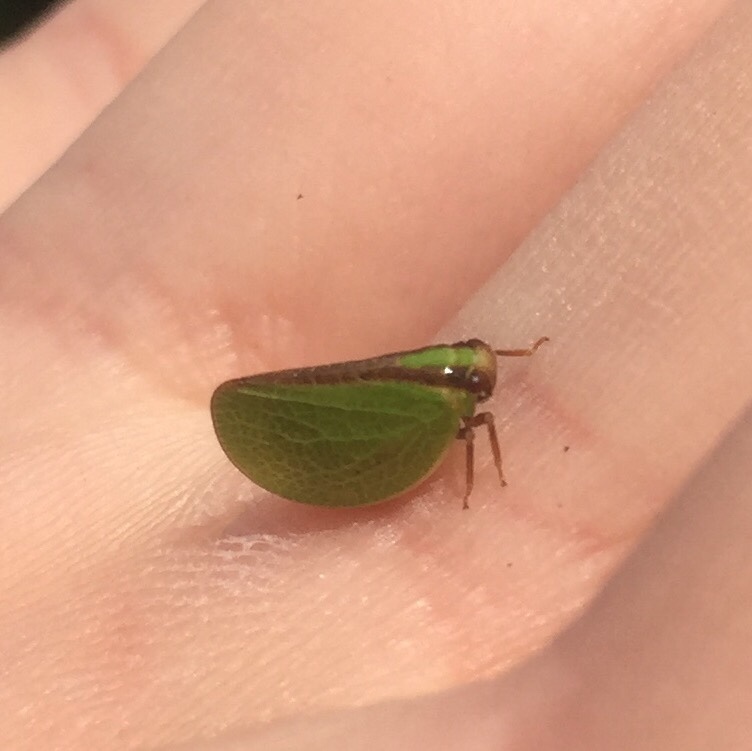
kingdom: Animalia
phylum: Arthropoda
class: Insecta
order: Hemiptera
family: Acanaloniidae
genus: Acanalonia
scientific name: Acanalonia bivittata
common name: Two-striped planthopper
